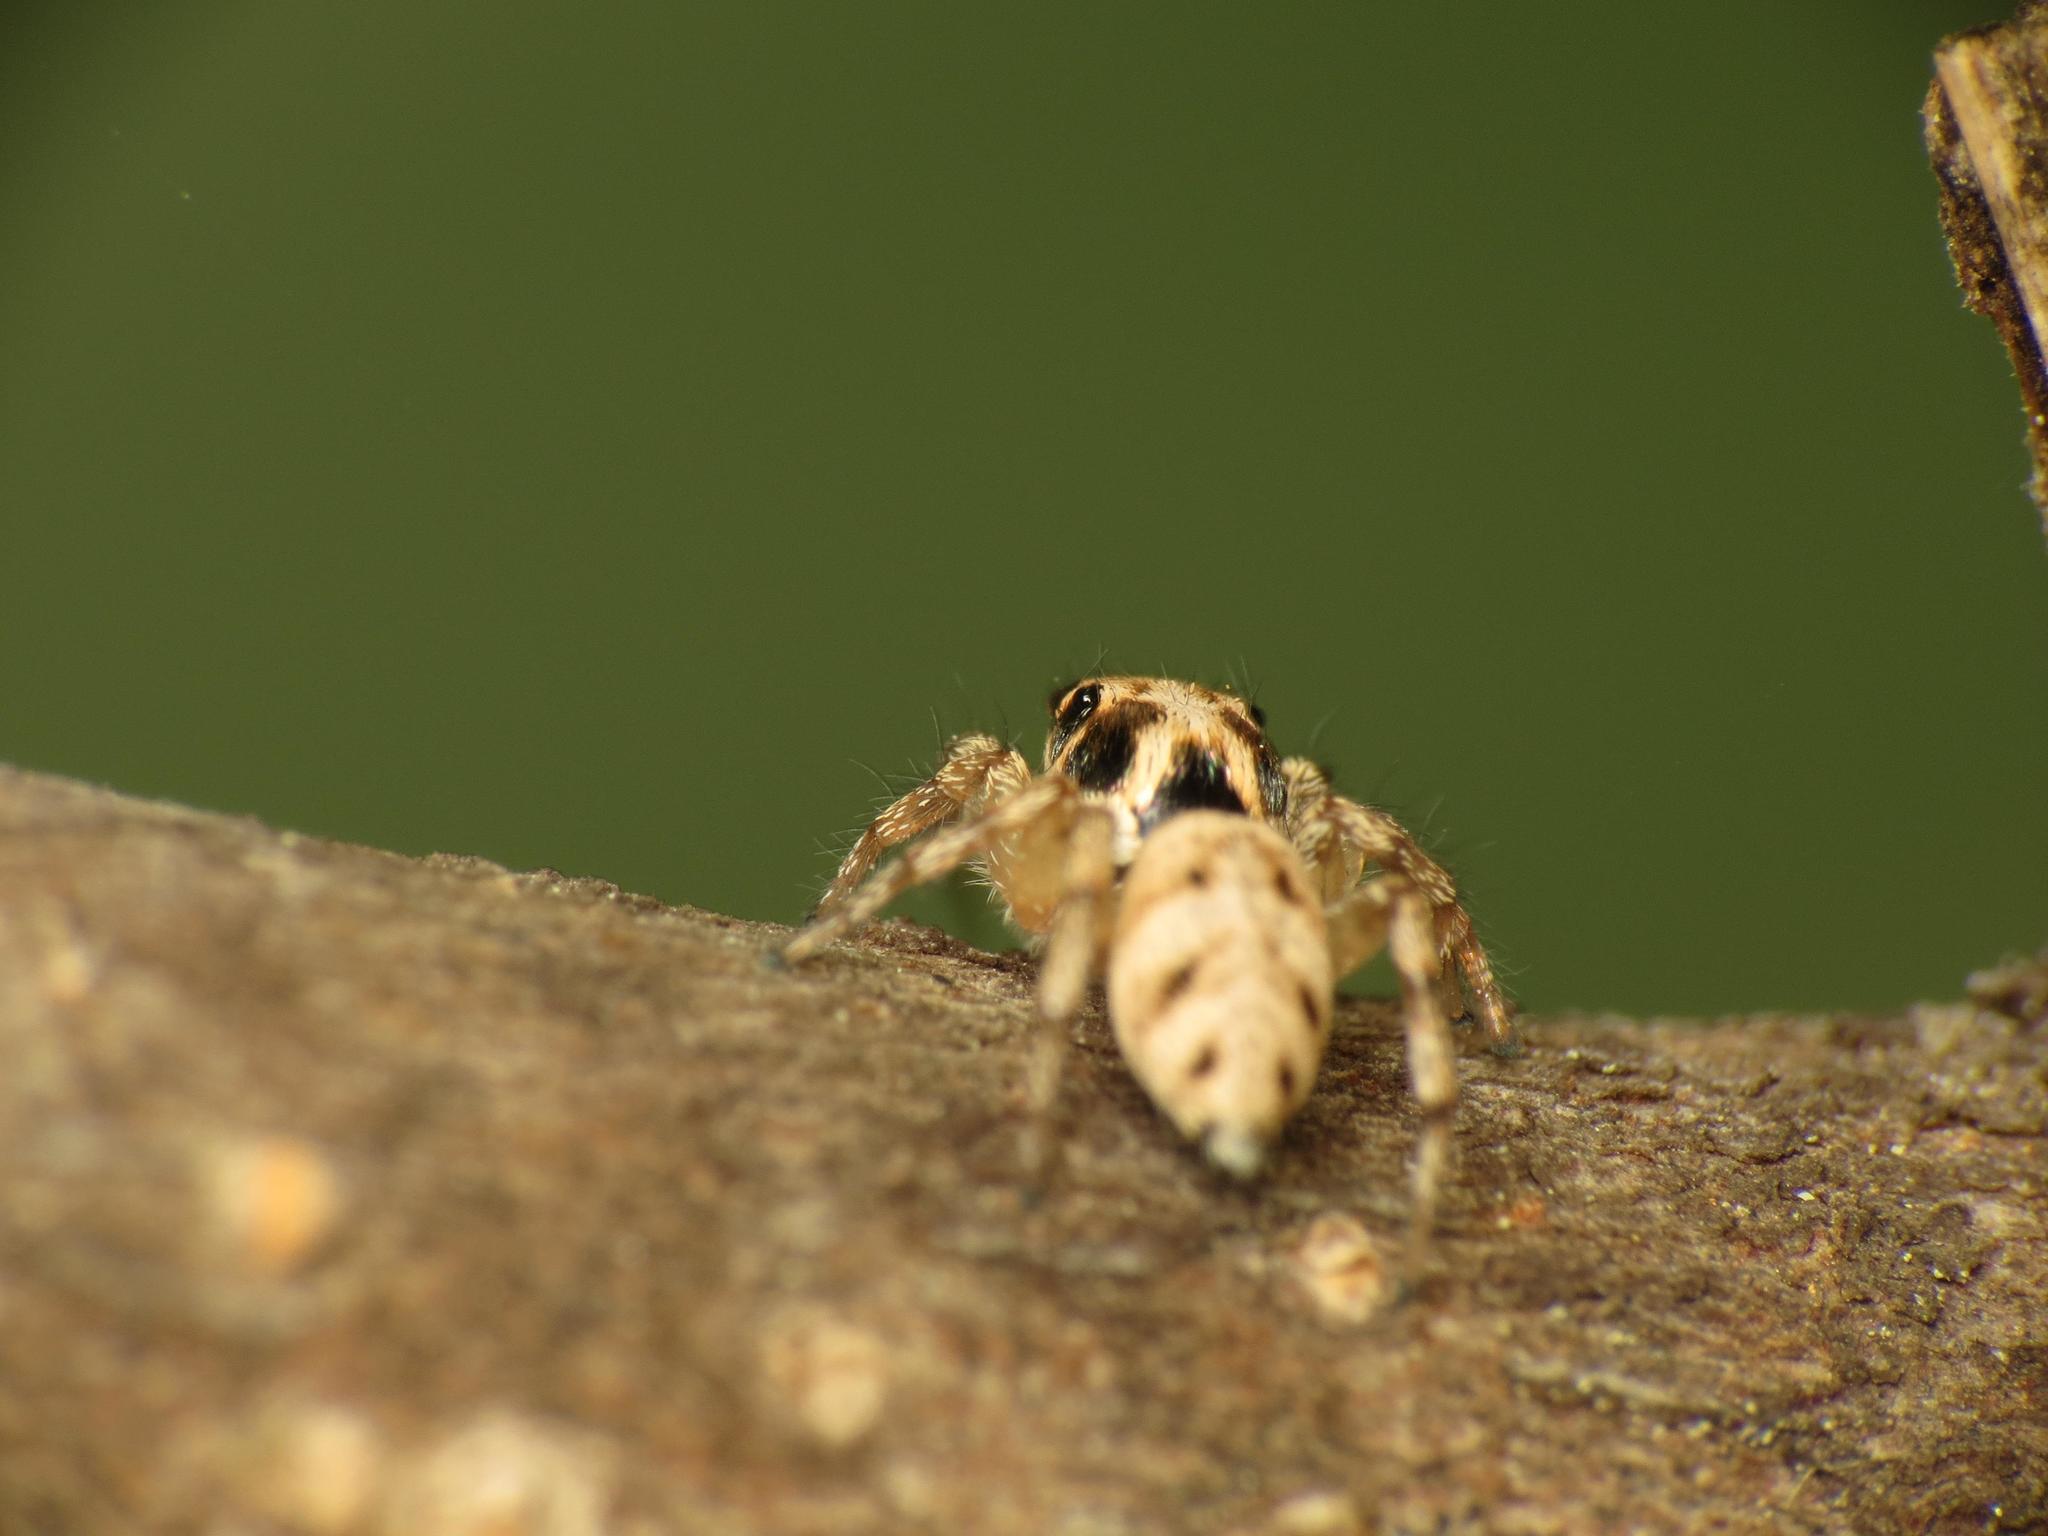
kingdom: Animalia
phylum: Arthropoda
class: Arachnida
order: Araneae
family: Salticidae
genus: Salticus
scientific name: Salticus mutabilis
